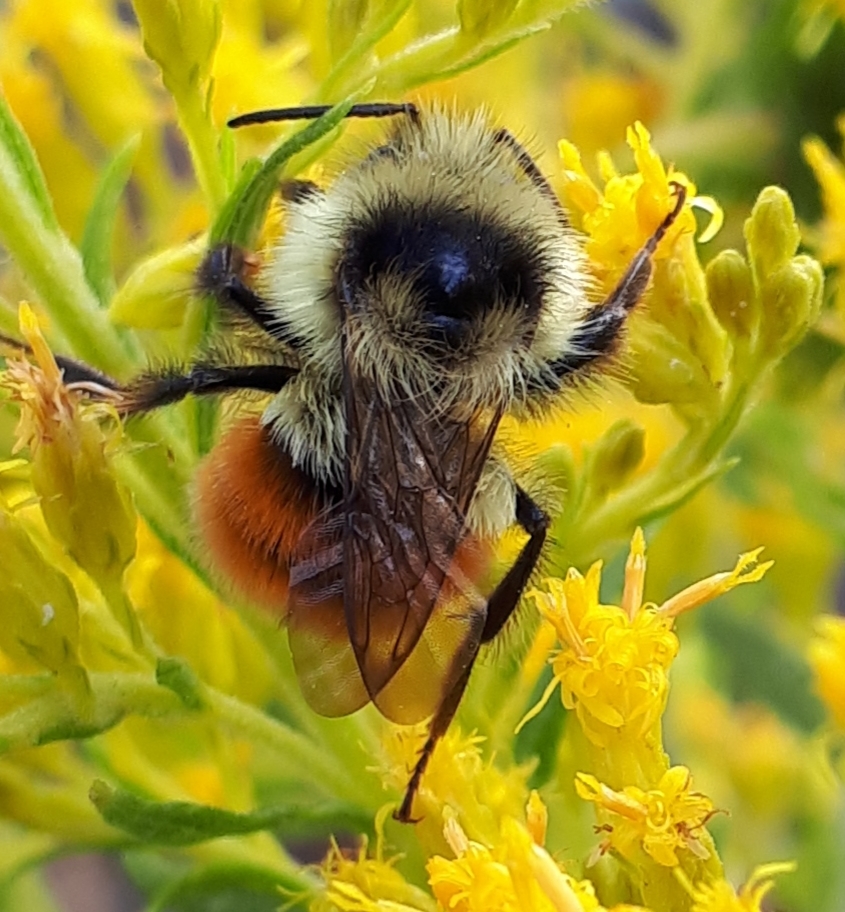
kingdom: Animalia
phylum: Arthropoda
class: Insecta
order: Hymenoptera
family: Apidae
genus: Bombus
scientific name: Bombus ternarius
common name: Tri-colored bumble bee
